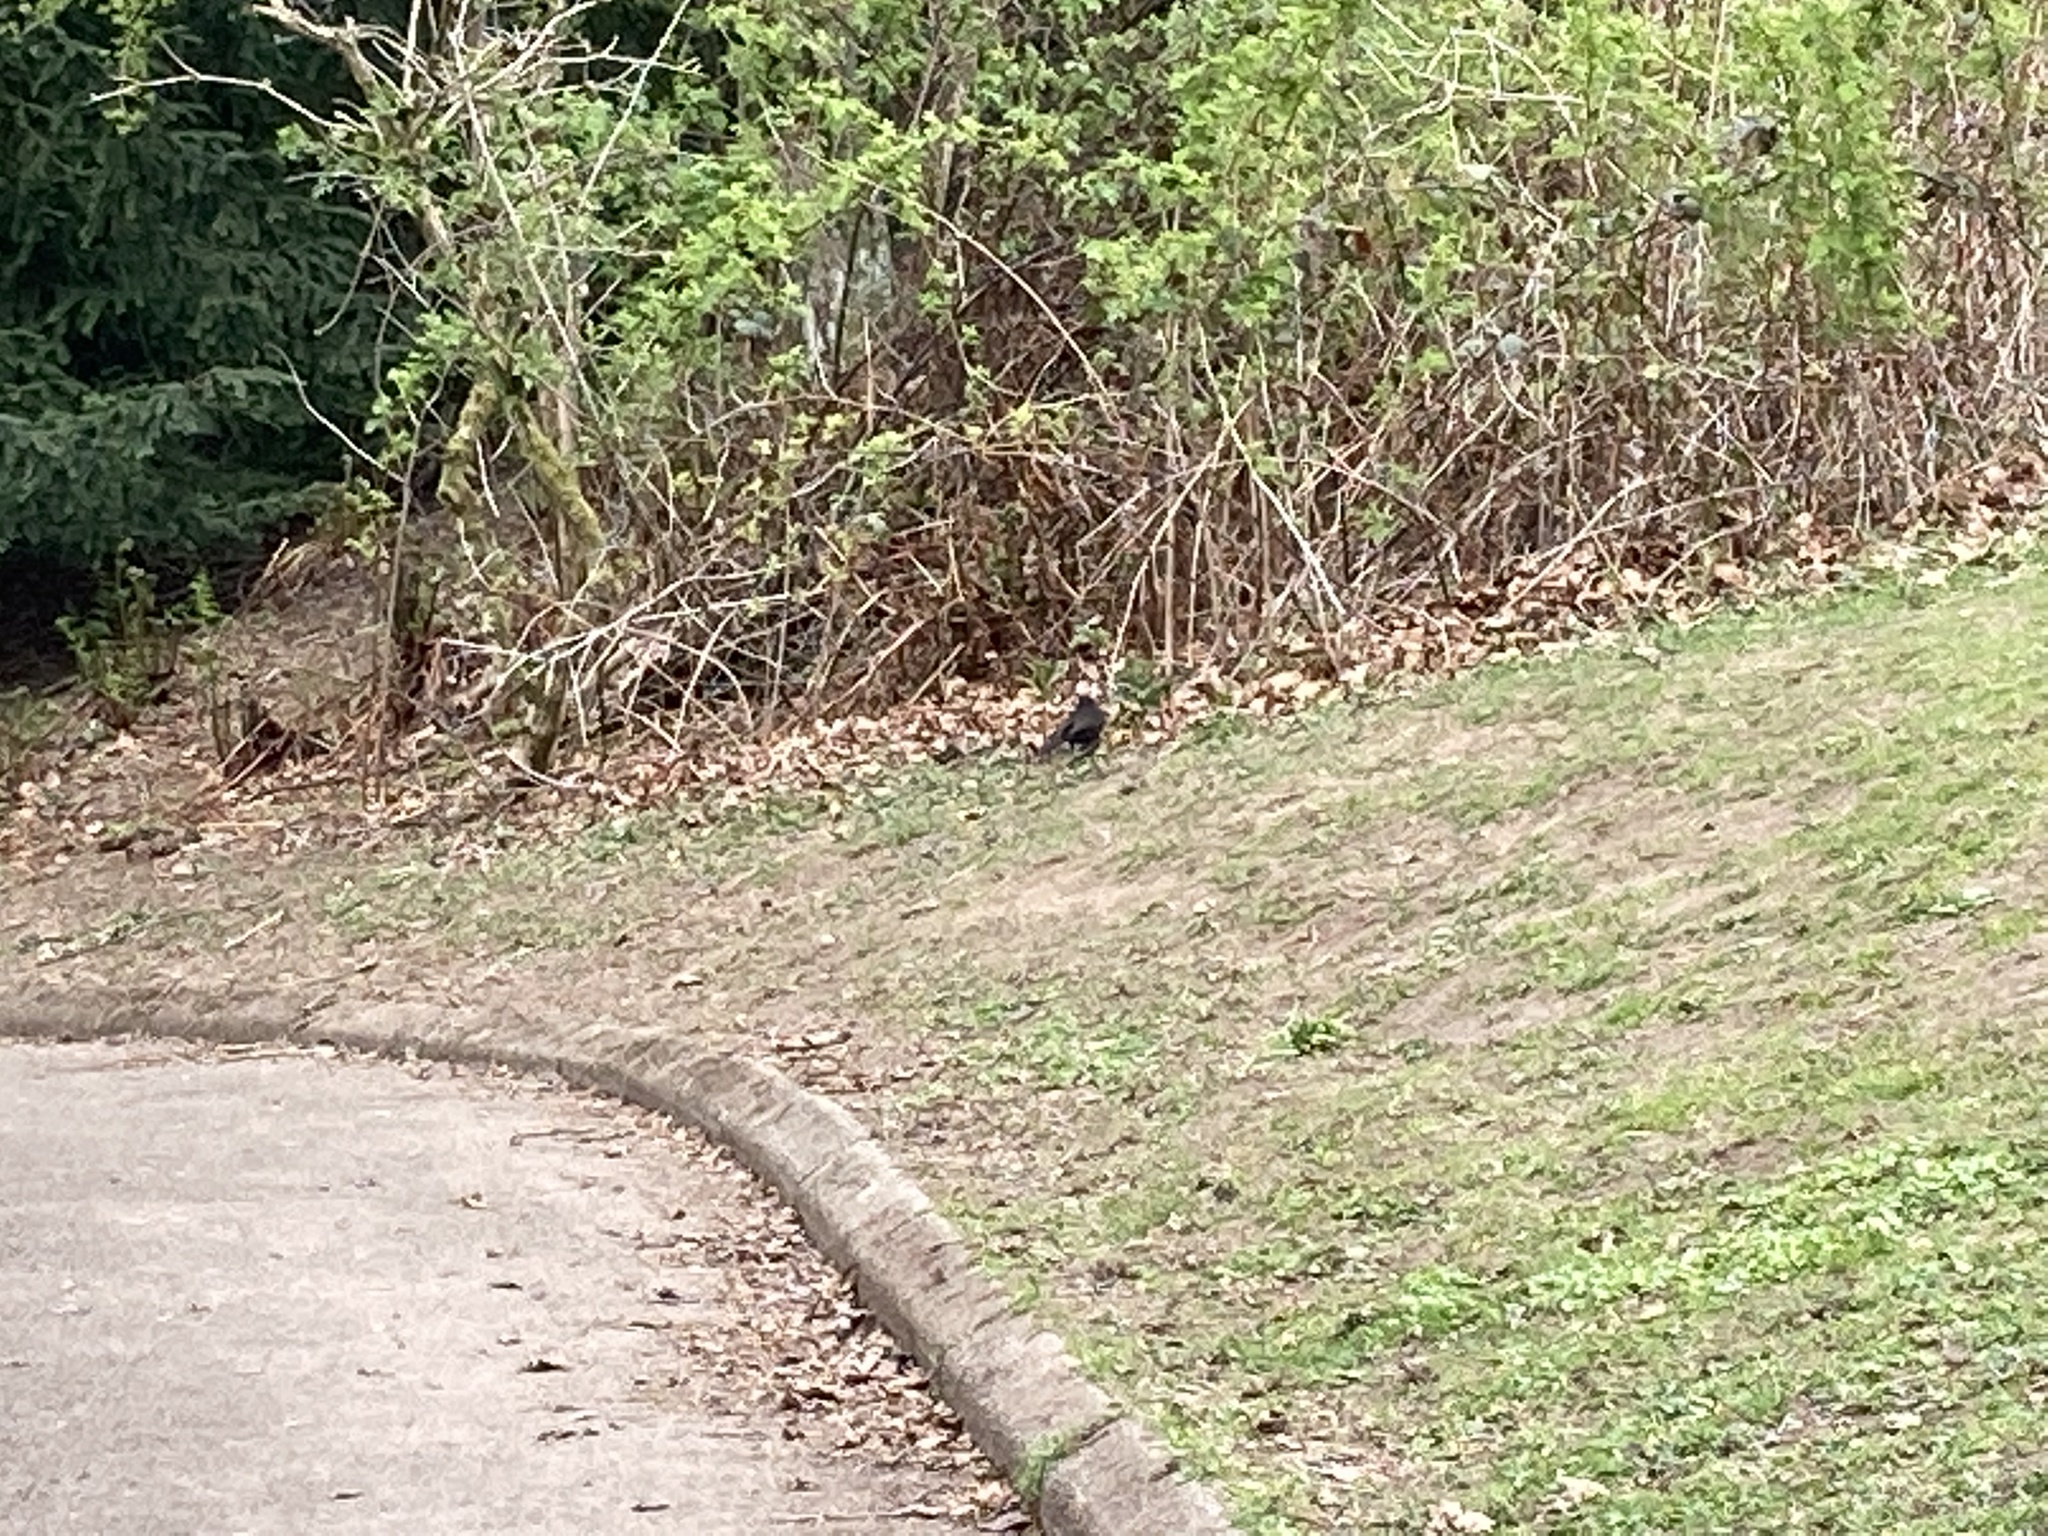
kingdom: Animalia
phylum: Chordata
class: Aves
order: Passeriformes
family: Turdidae
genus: Turdus
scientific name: Turdus merula
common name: Common blackbird
